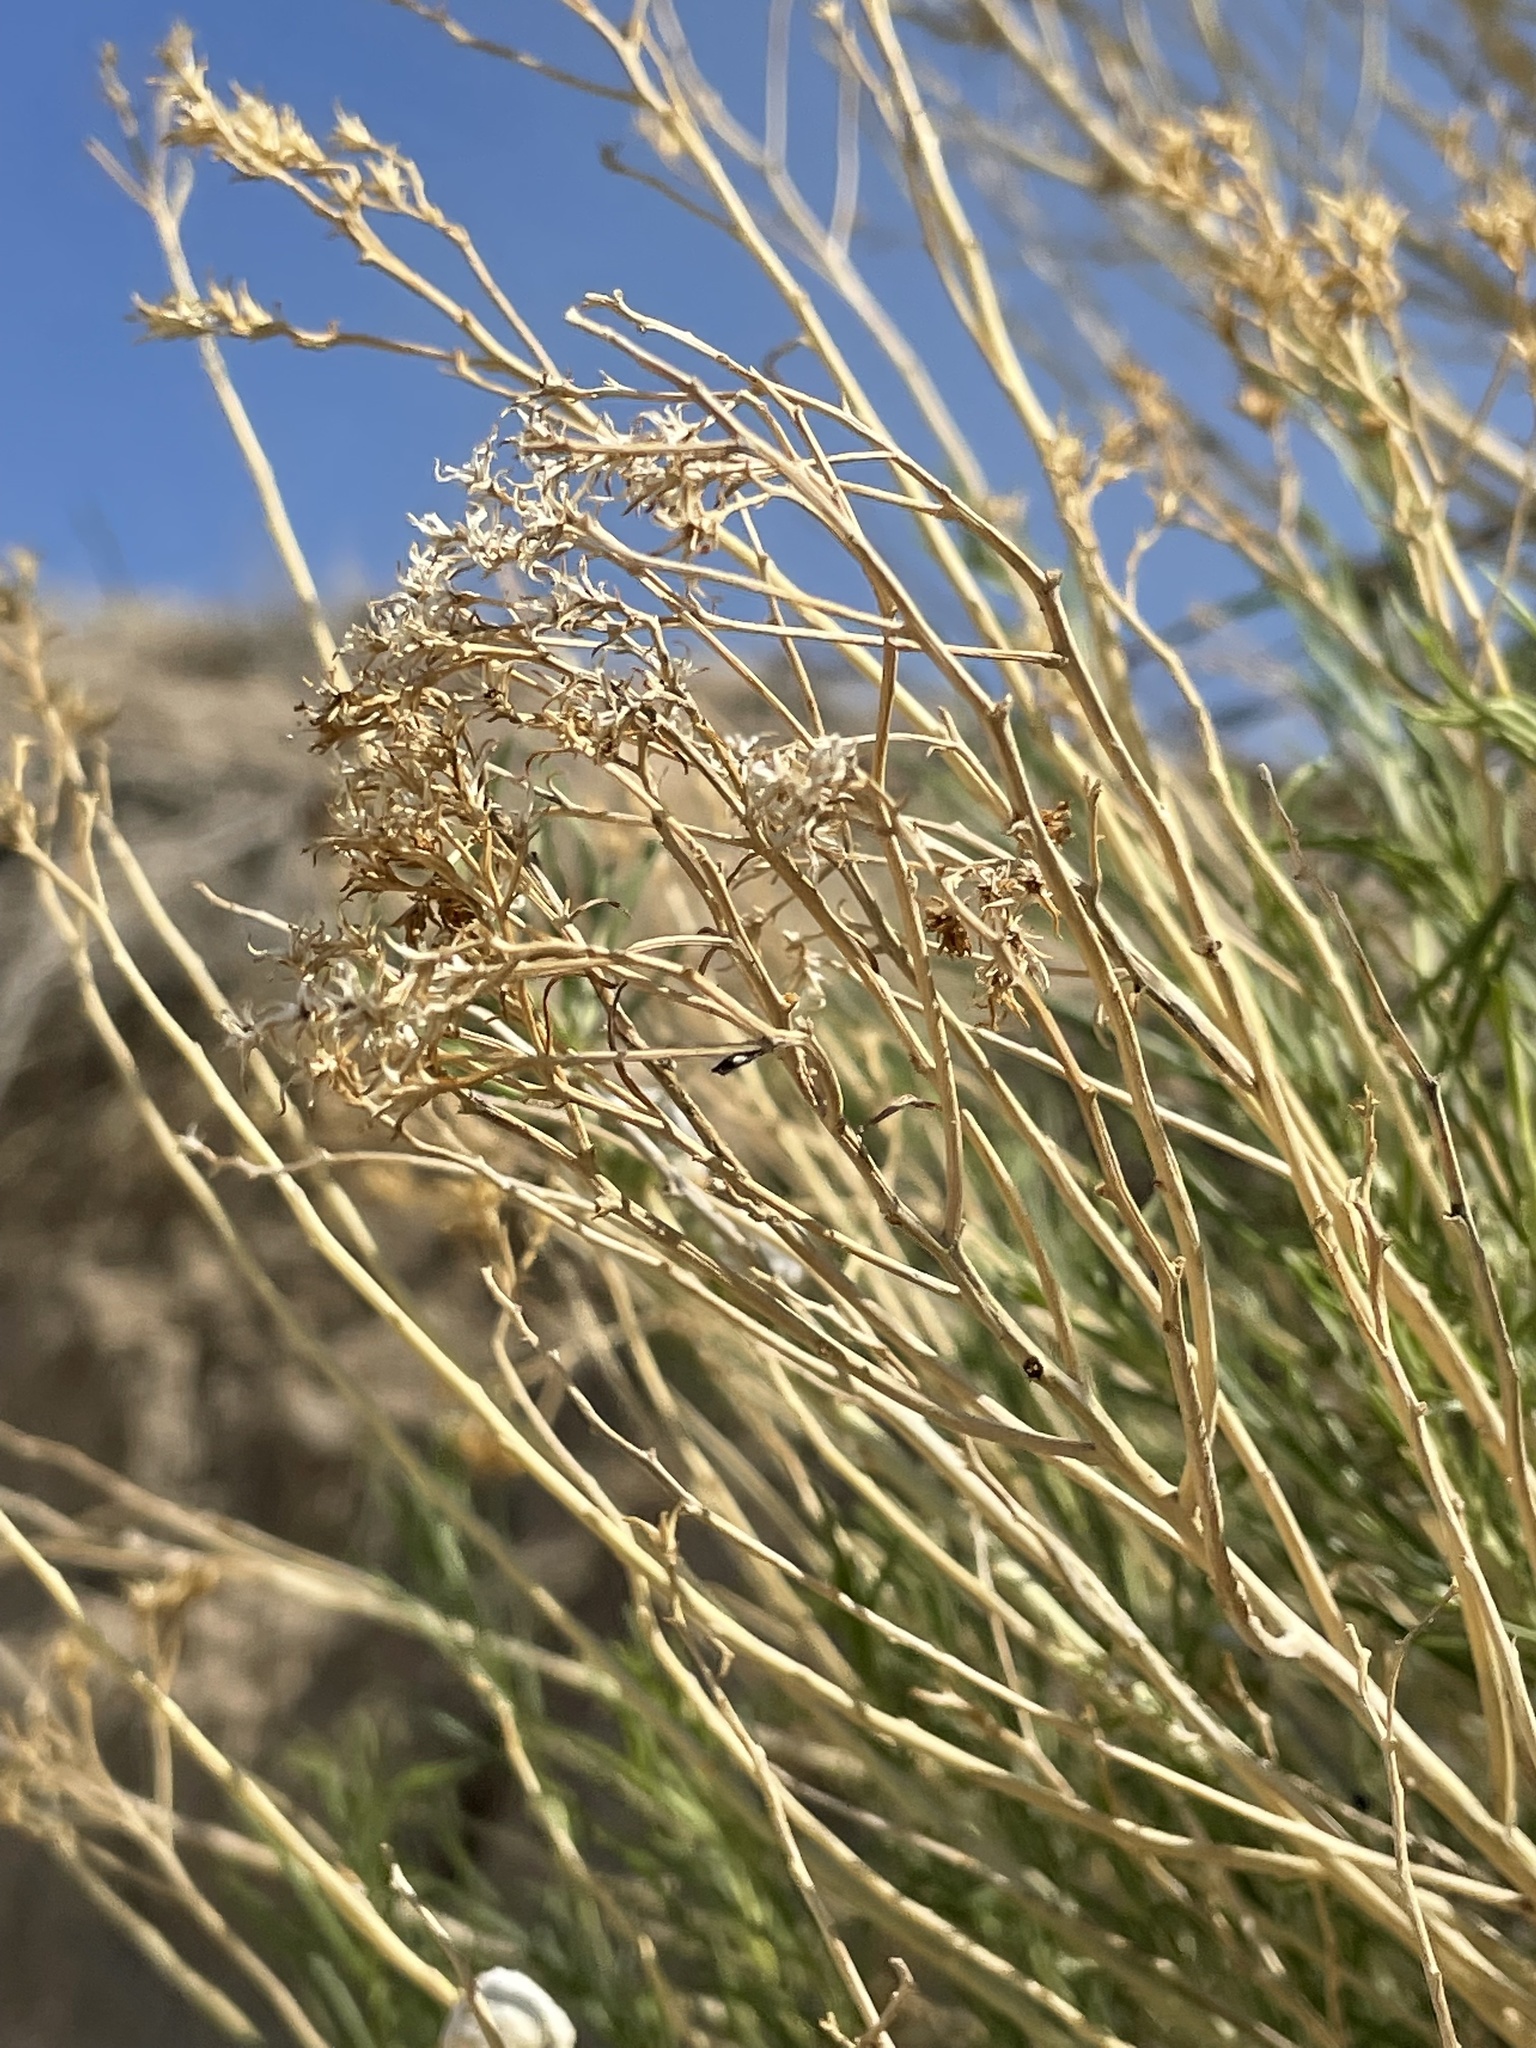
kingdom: Plantae
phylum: Tracheophyta
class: Magnoliopsida
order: Asterales
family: Asteraceae
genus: Ericameria
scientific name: Ericameria nauseosa
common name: Rubber rabbitbrush
